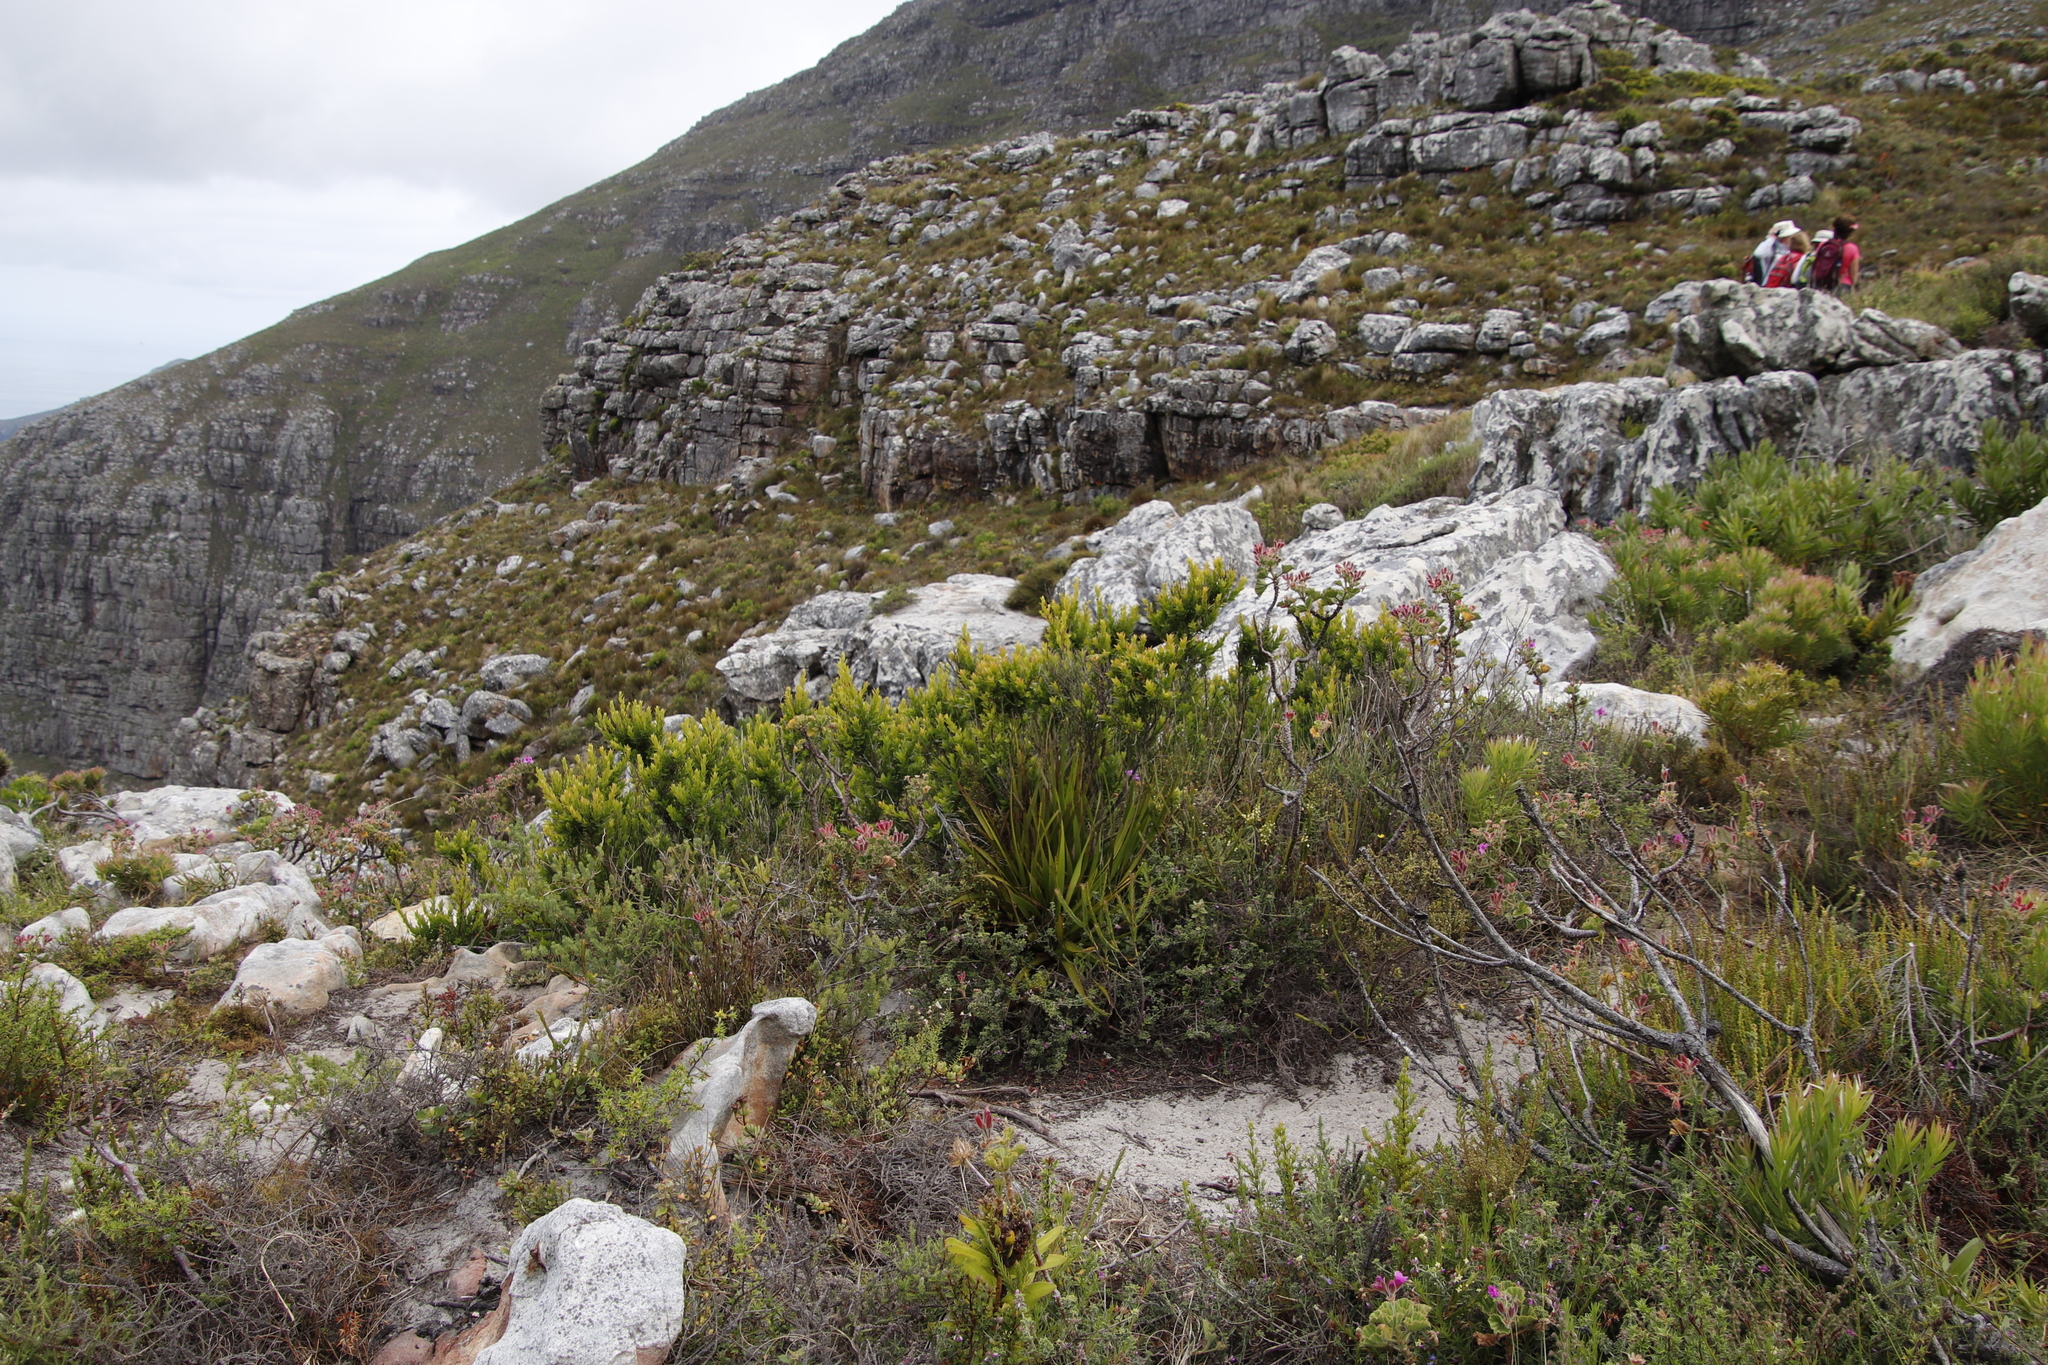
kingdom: Plantae
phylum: Tracheophyta
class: Magnoliopsida
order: Ericales
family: Ebenaceae
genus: Diospyros
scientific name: Diospyros glabra
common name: Fynbos star apple
